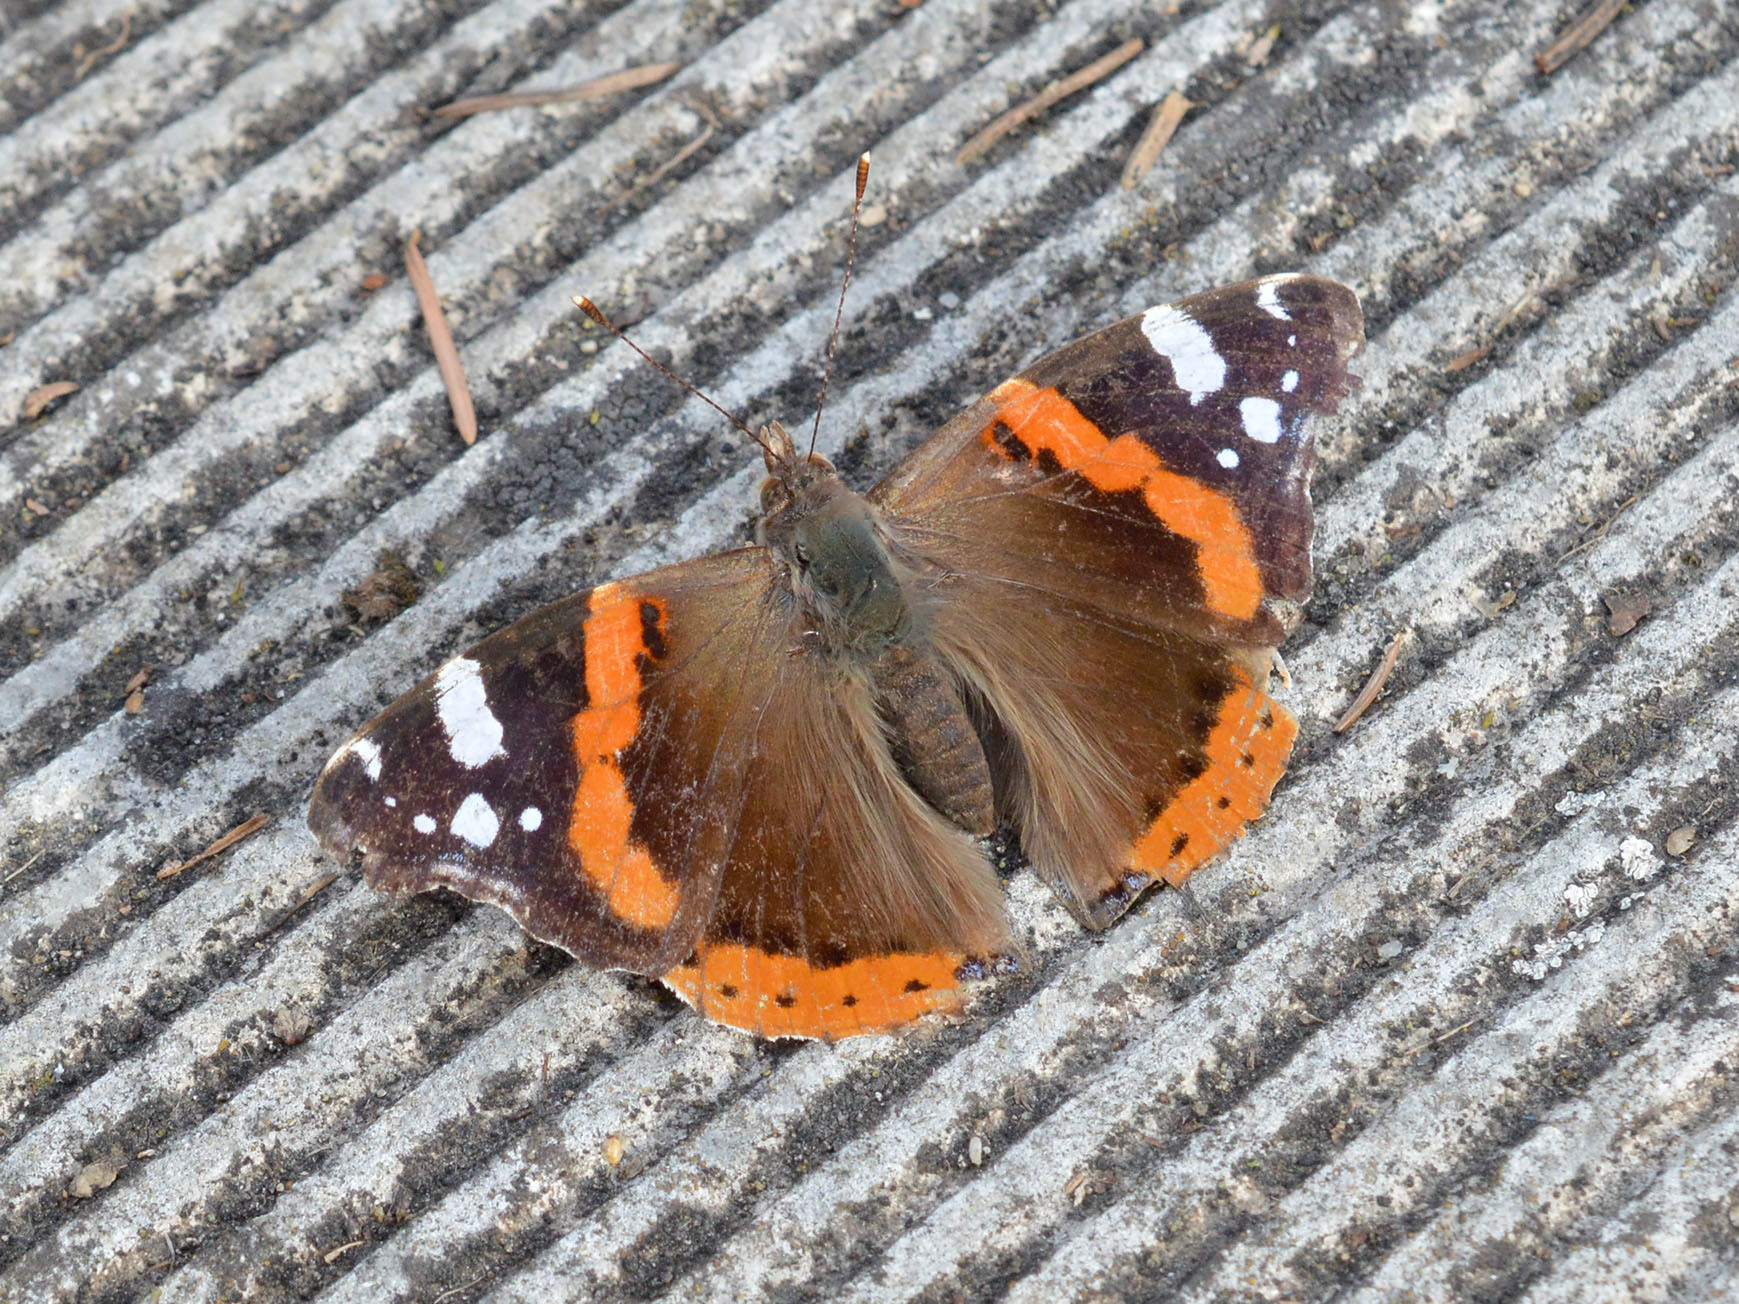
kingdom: Animalia
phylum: Arthropoda
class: Insecta
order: Lepidoptera
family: Nymphalidae
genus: Vanessa
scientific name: Vanessa atalanta
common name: Red admiral
